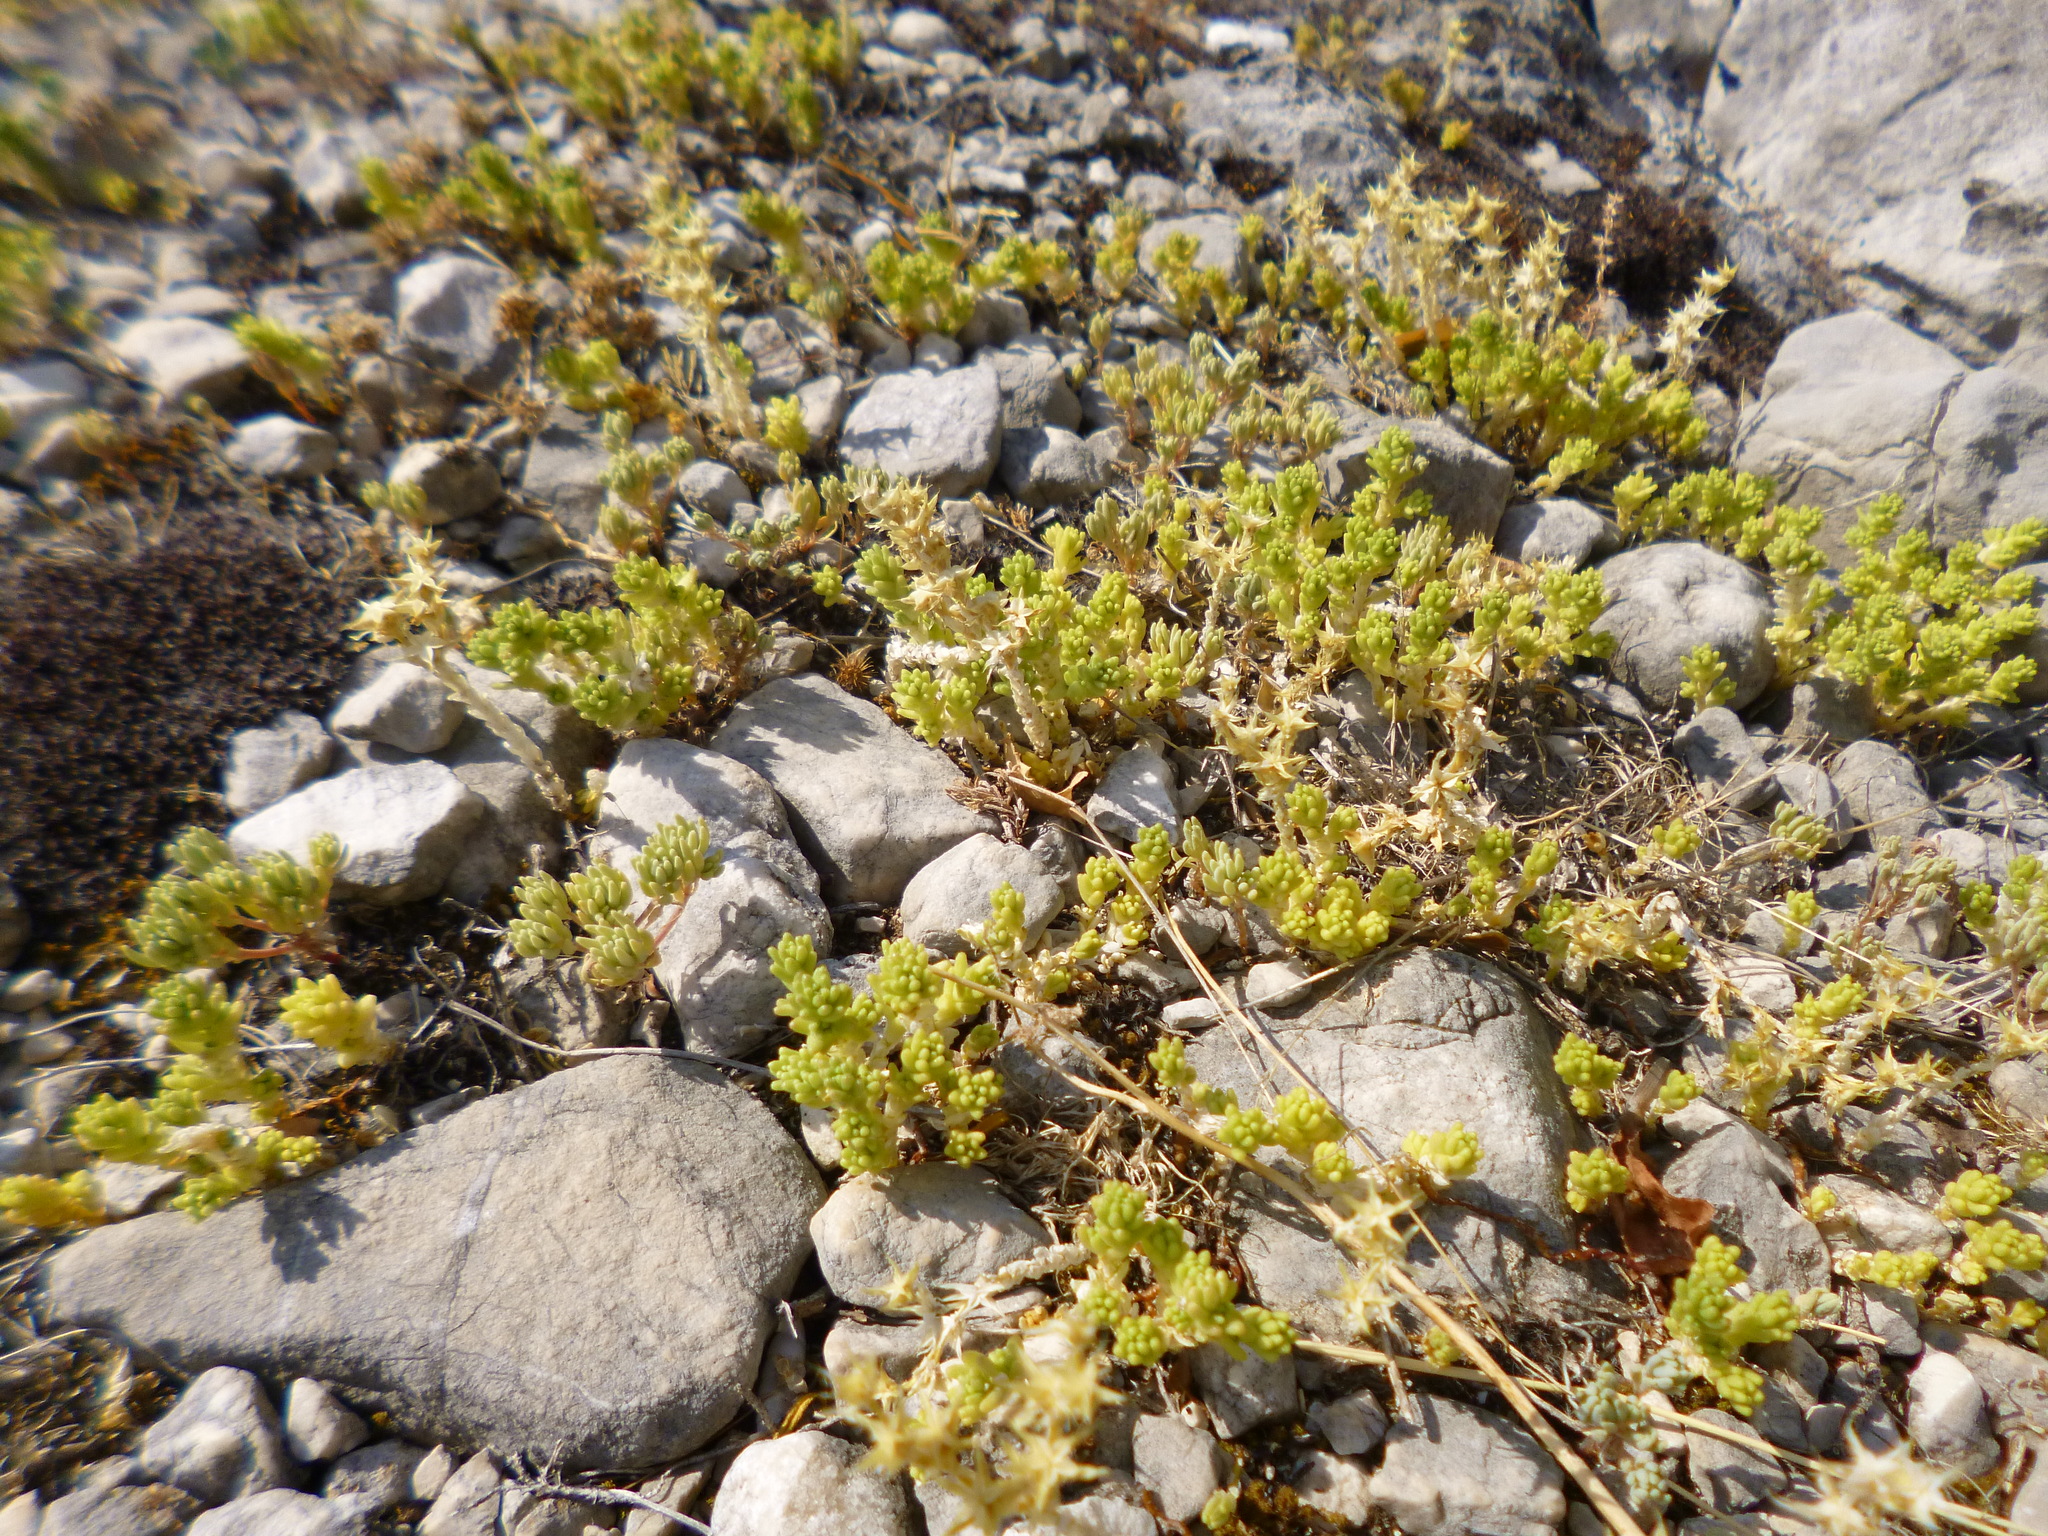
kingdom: Plantae
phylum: Tracheophyta
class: Magnoliopsida
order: Saxifragales
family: Crassulaceae
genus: Sedum
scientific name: Sedum acre
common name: Biting stonecrop
